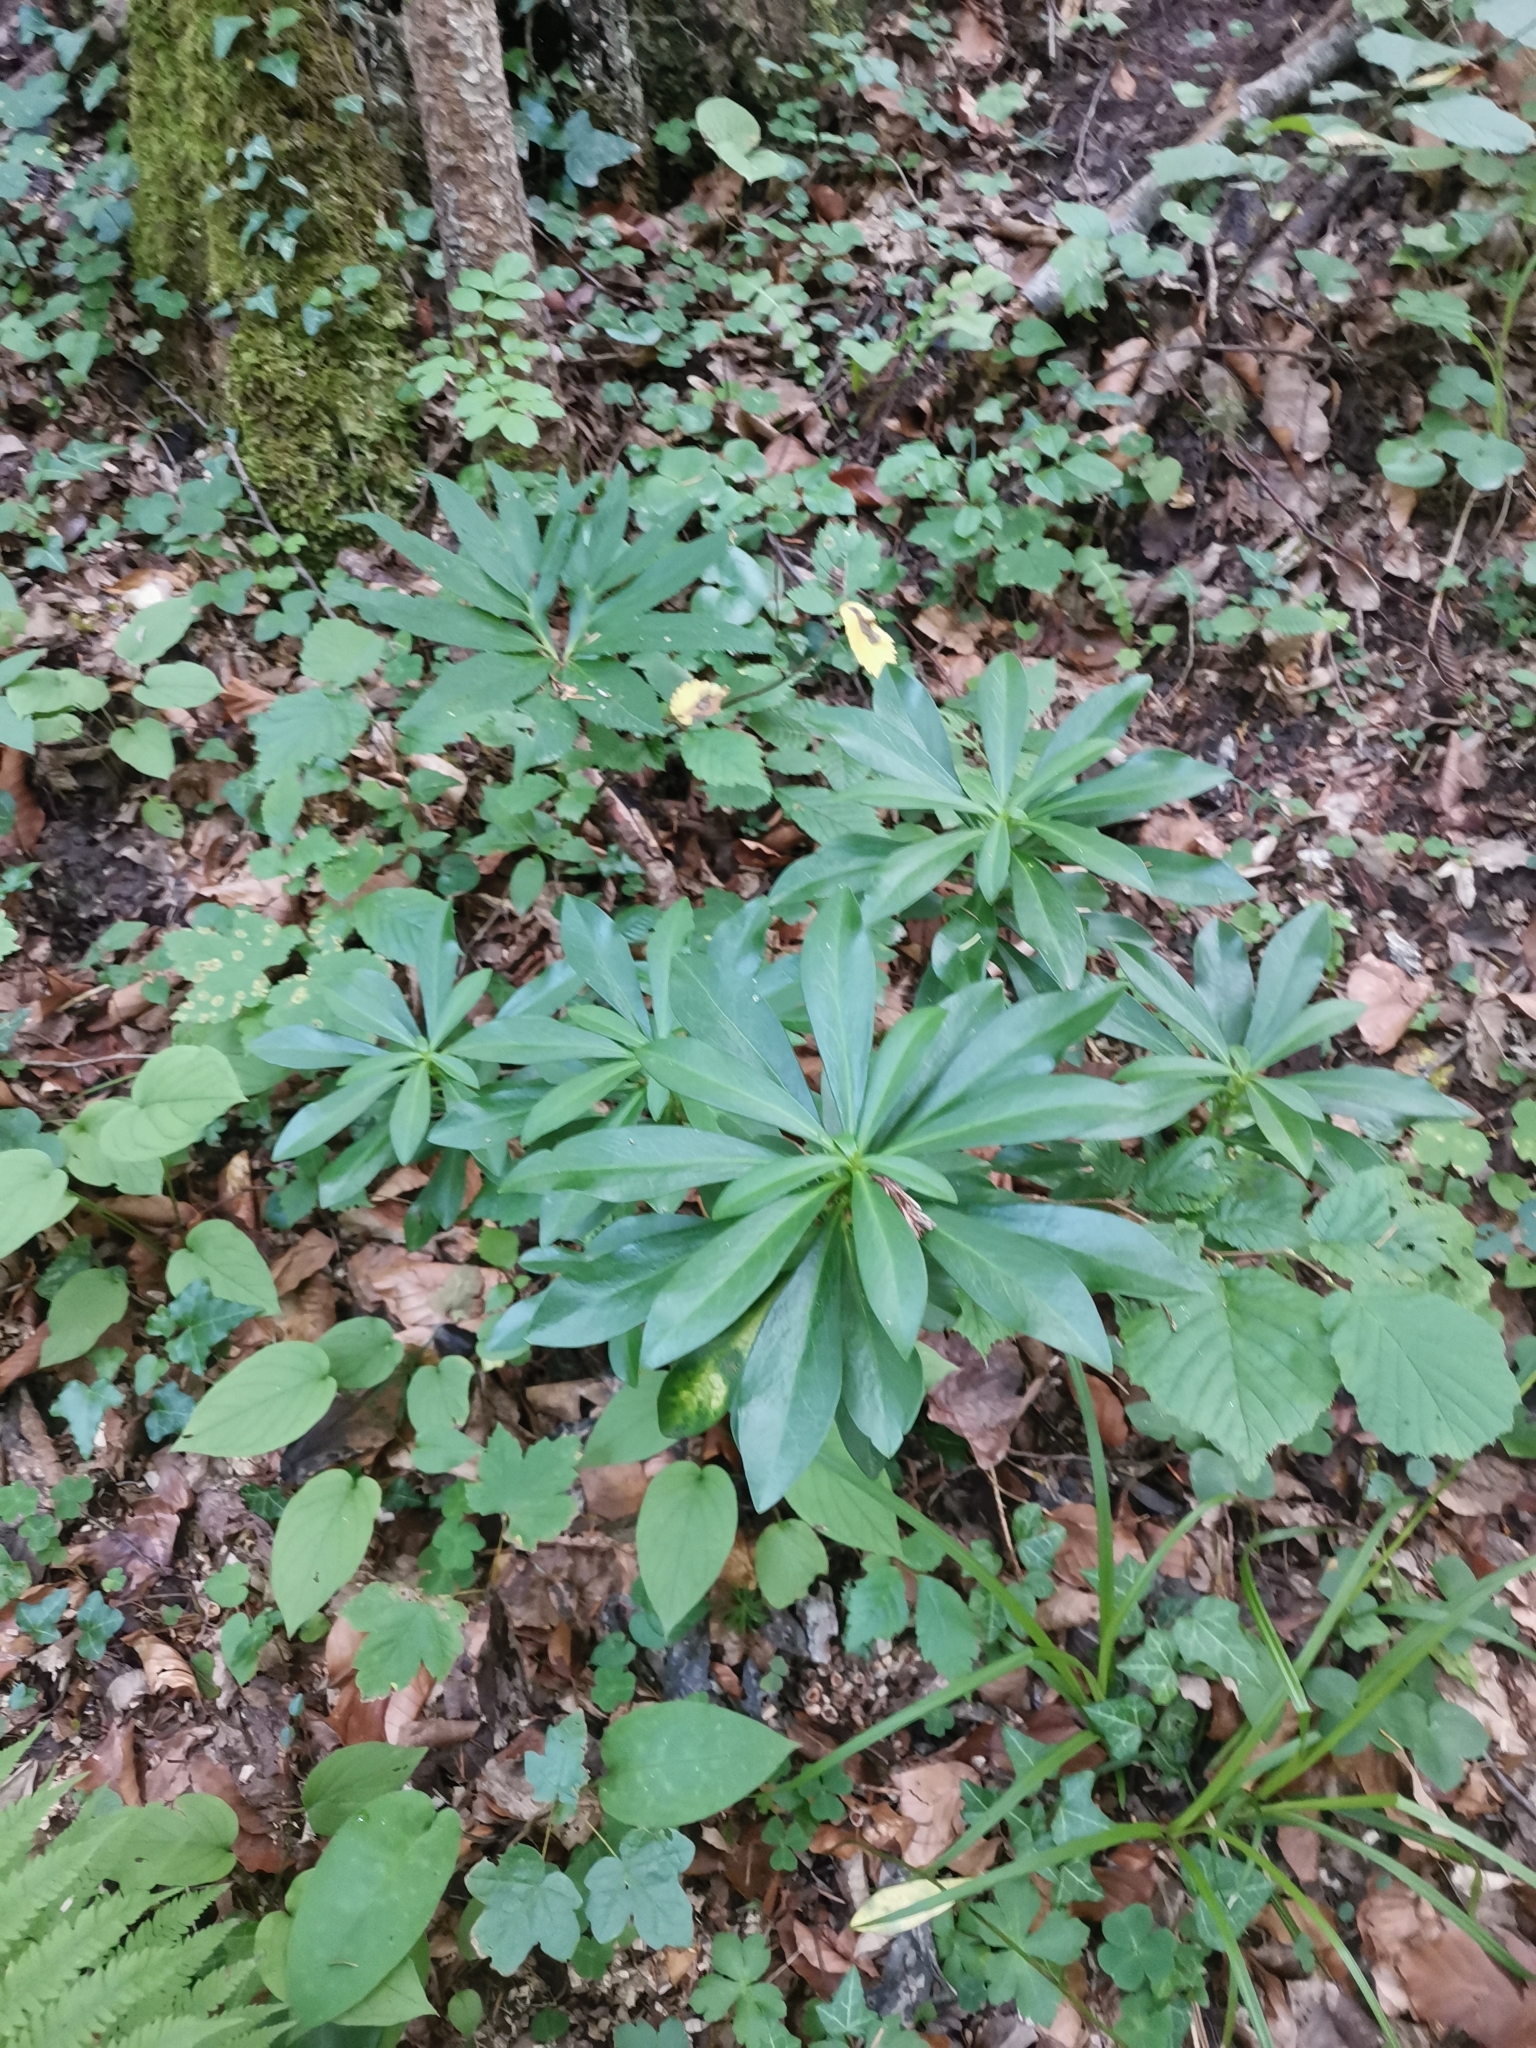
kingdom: Plantae
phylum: Tracheophyta
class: Magnoliopsida
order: Malvales
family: Thymelaeaceae
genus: Daphne
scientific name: Daphne laureola
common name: Spurge-laurel
